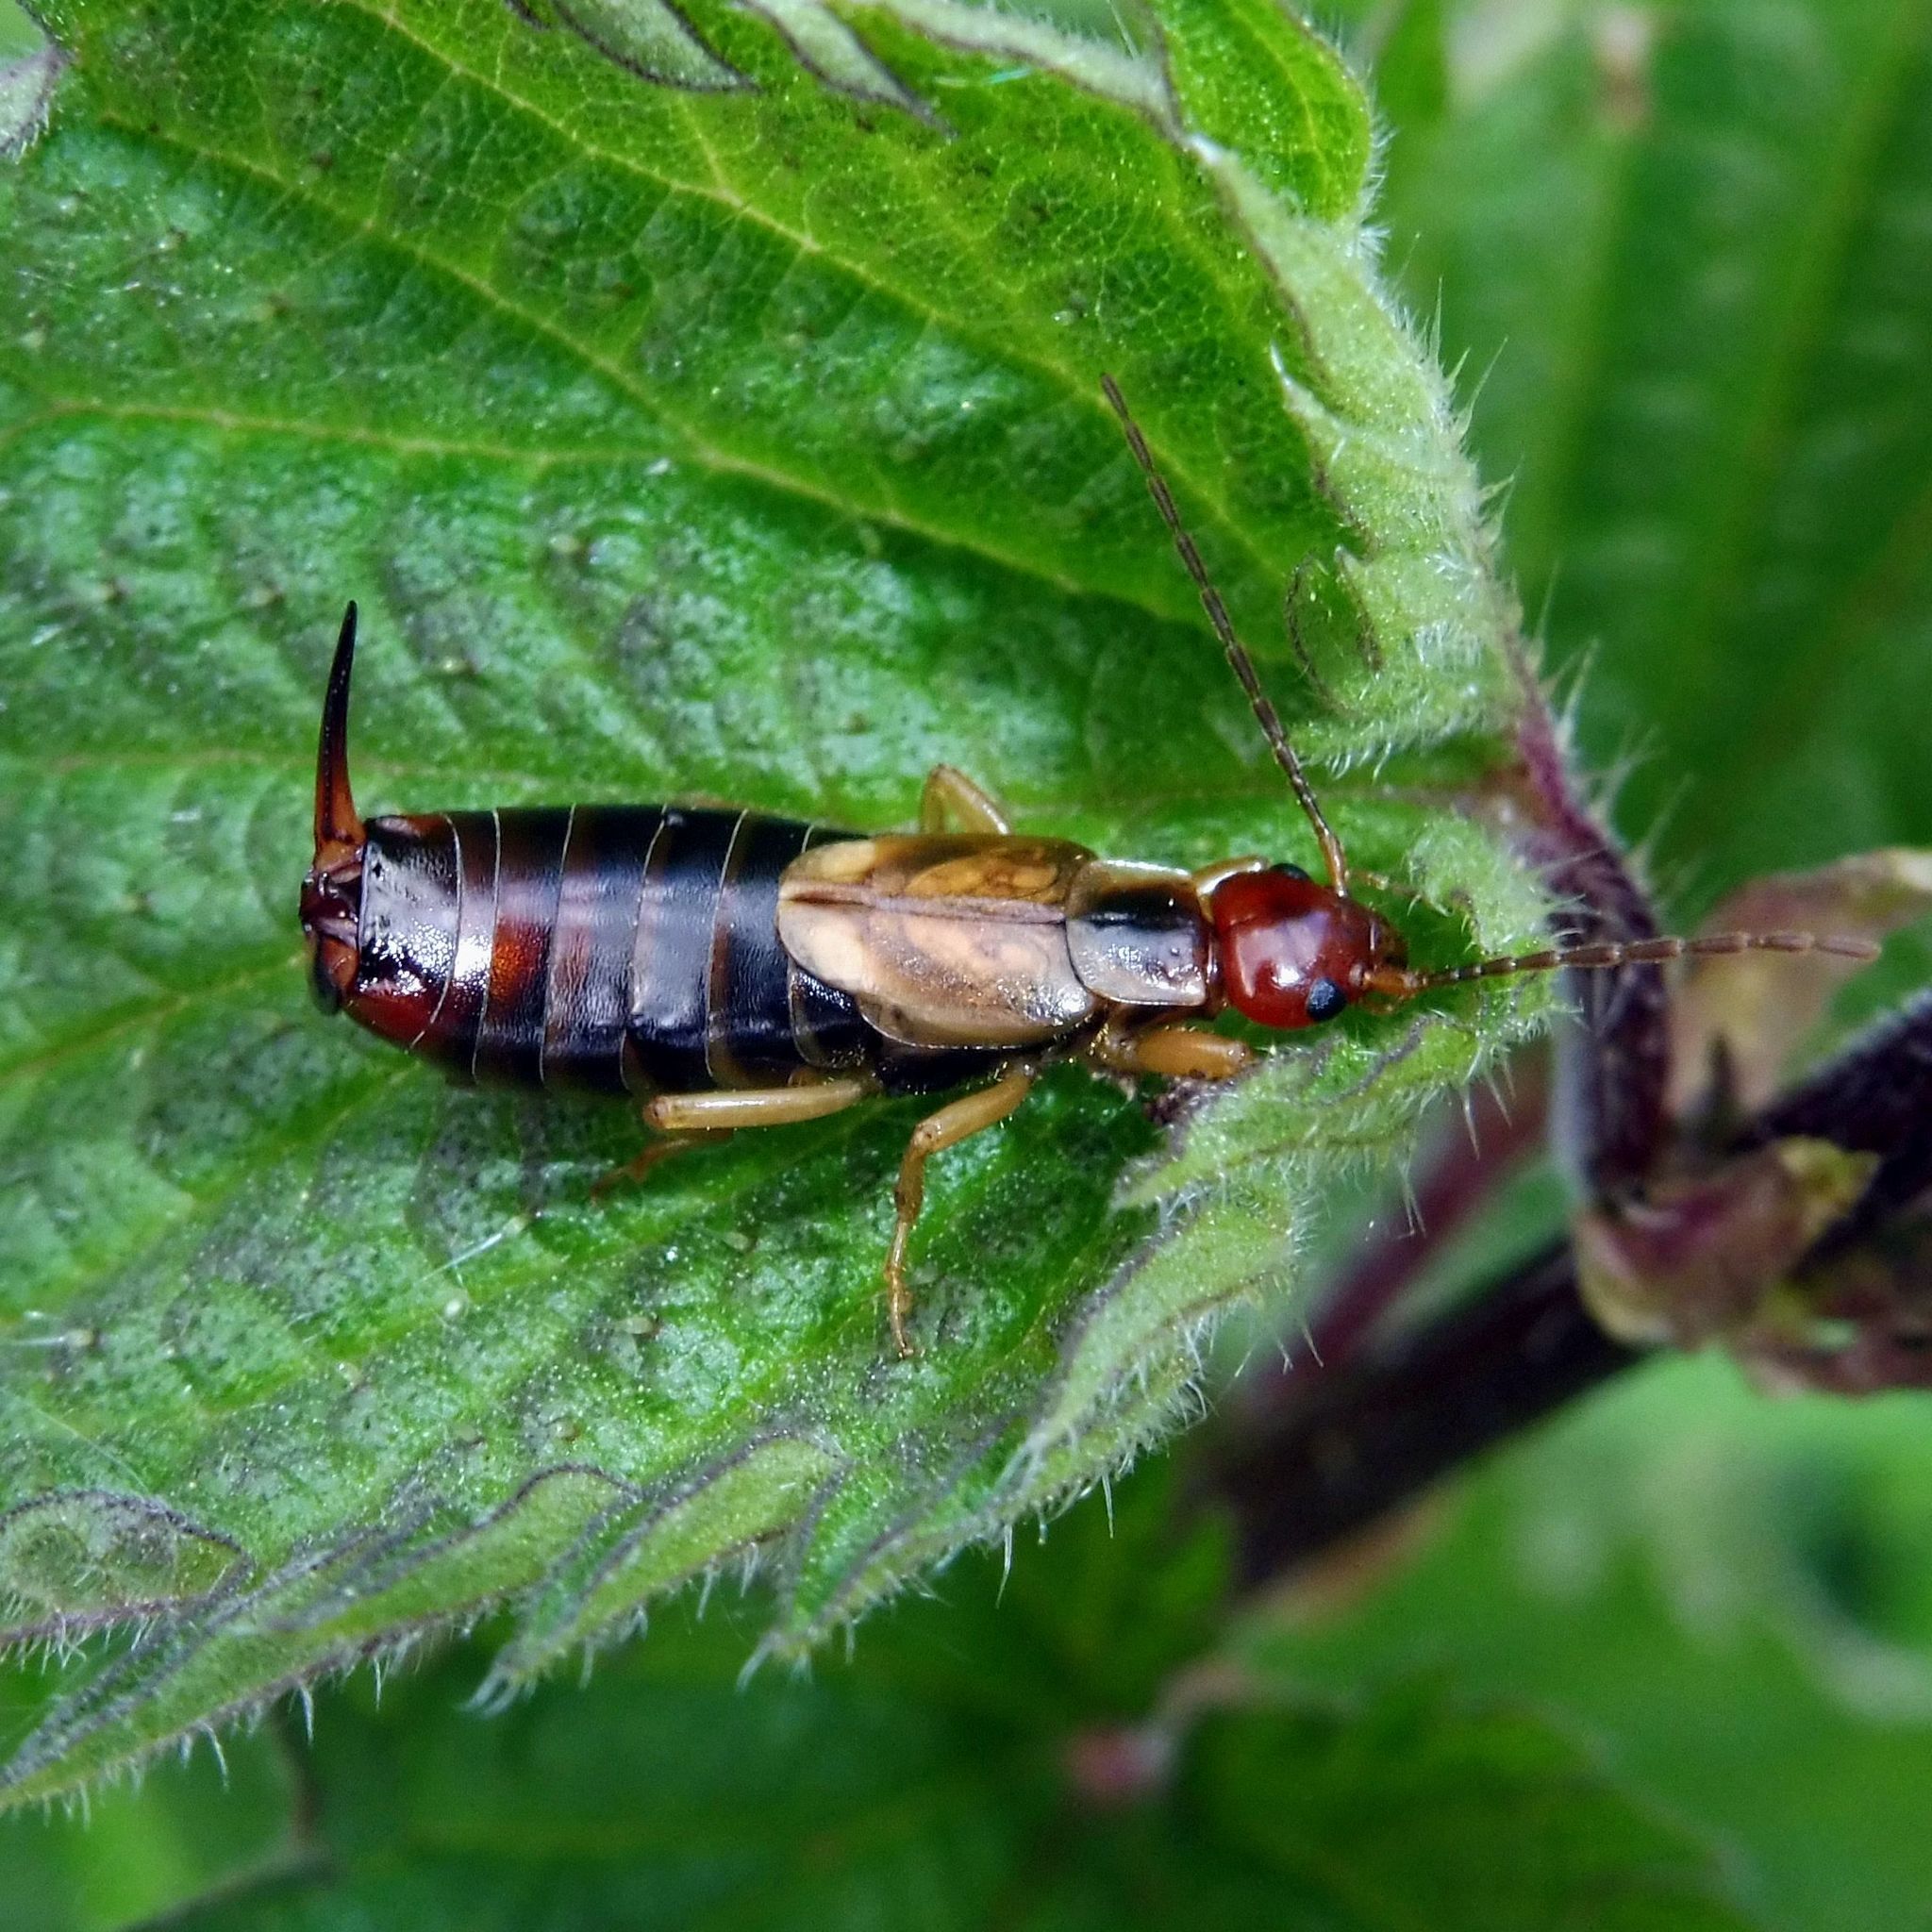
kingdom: Animalia
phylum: Arthropoda
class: Insecta
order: Dermaptera
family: Forficulidae
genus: Forficula
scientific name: Forficula
